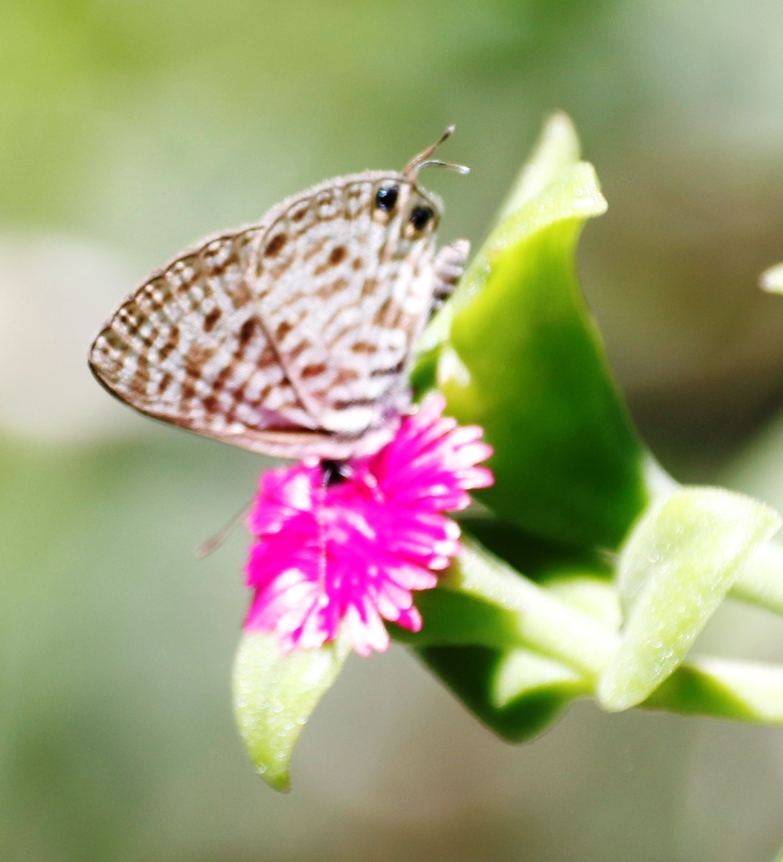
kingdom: Animalia
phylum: Arthropoda
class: Insecta
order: Lepidoptera
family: Lycaenidae
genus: Leptotes
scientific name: Leptotes
